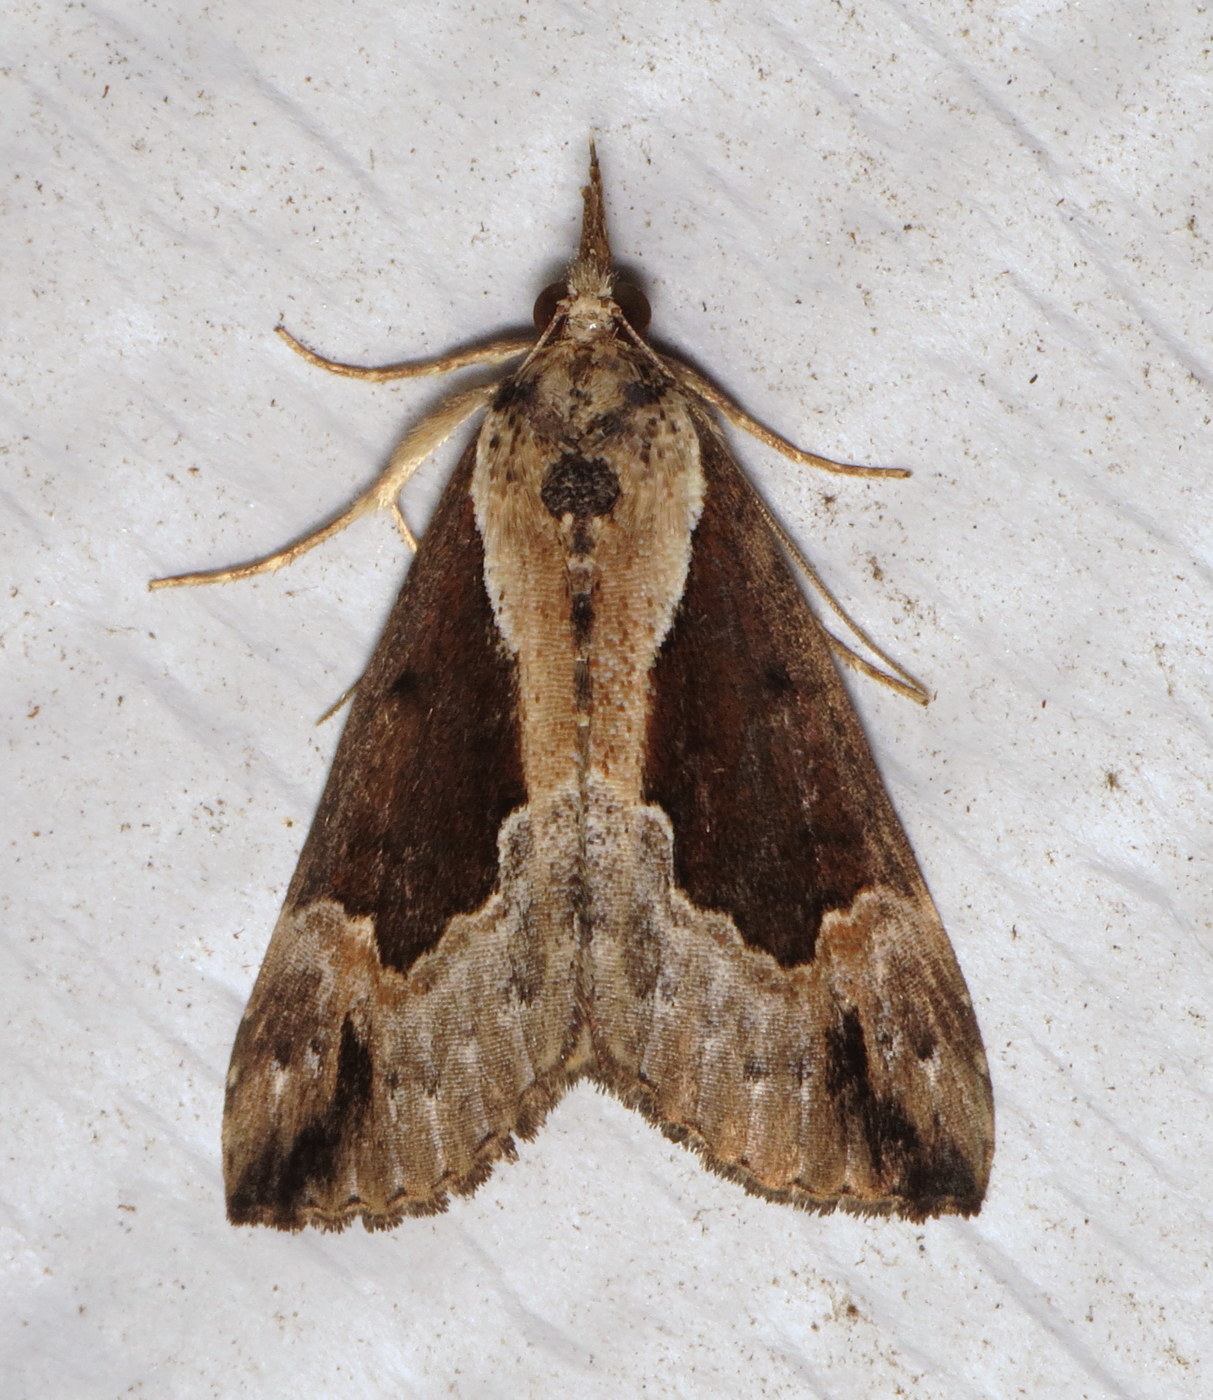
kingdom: Animalia
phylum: Arthropoda
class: Insecta
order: Lepidoptera
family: Erebidae
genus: Hypena
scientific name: Hypena baltimoralis
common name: Baltimore snout
